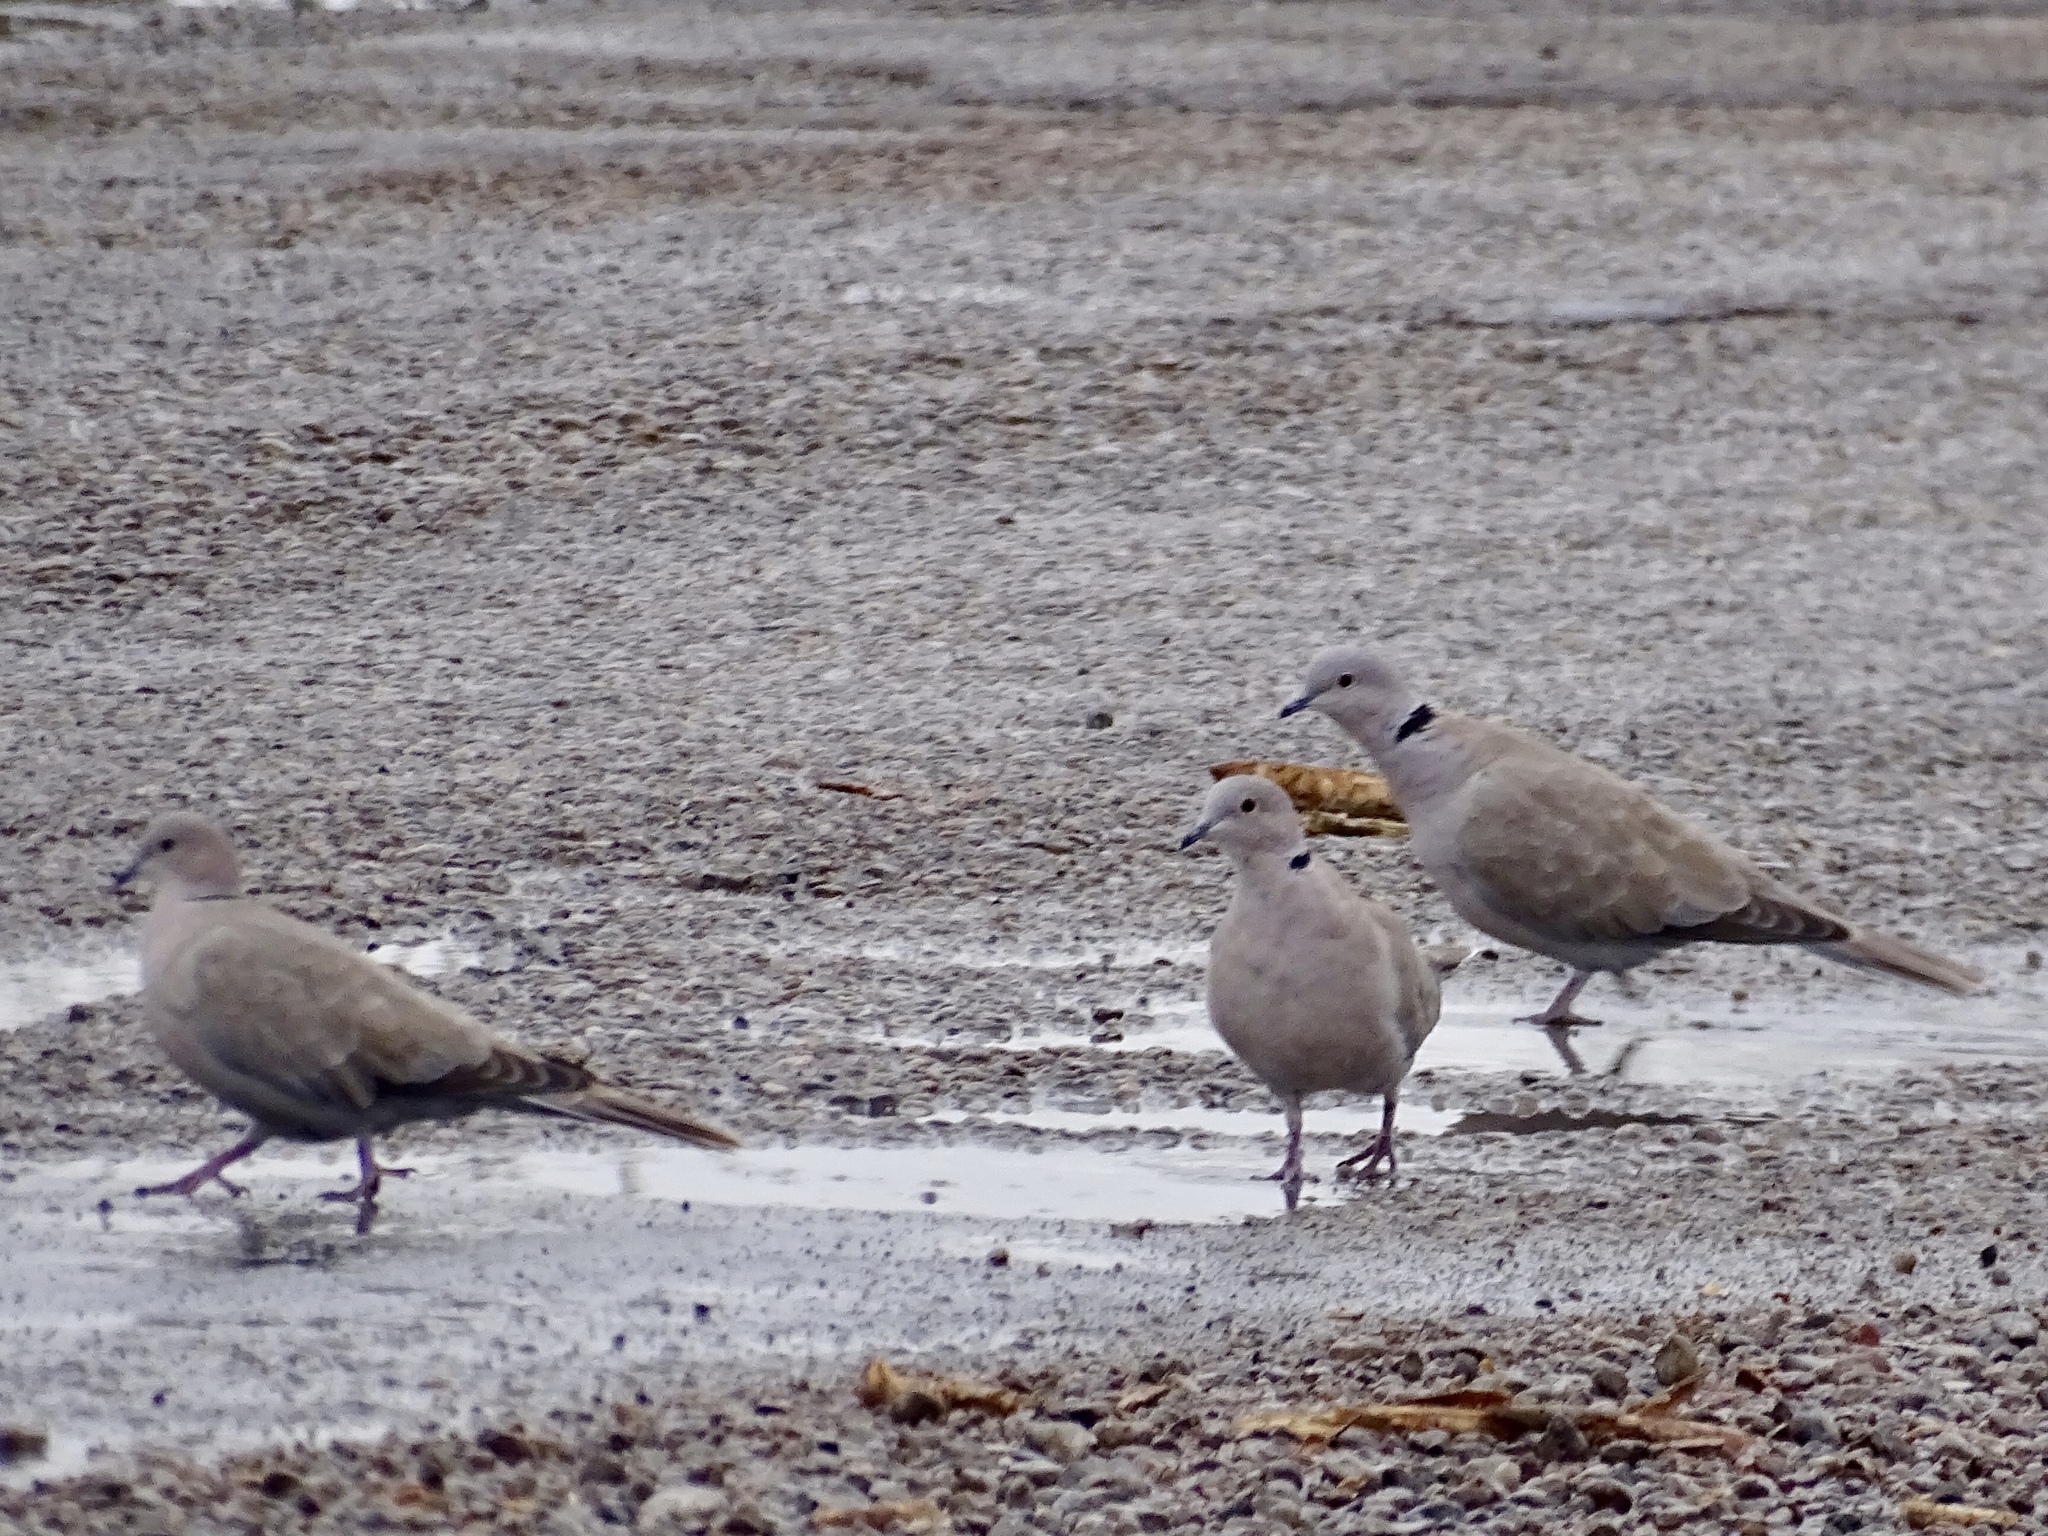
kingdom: Animalia
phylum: Chordata
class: Aves
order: Columbiformes
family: Columbidae
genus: Streptopelia
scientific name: Streptopelia decaocto
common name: Eurasian collared dove
